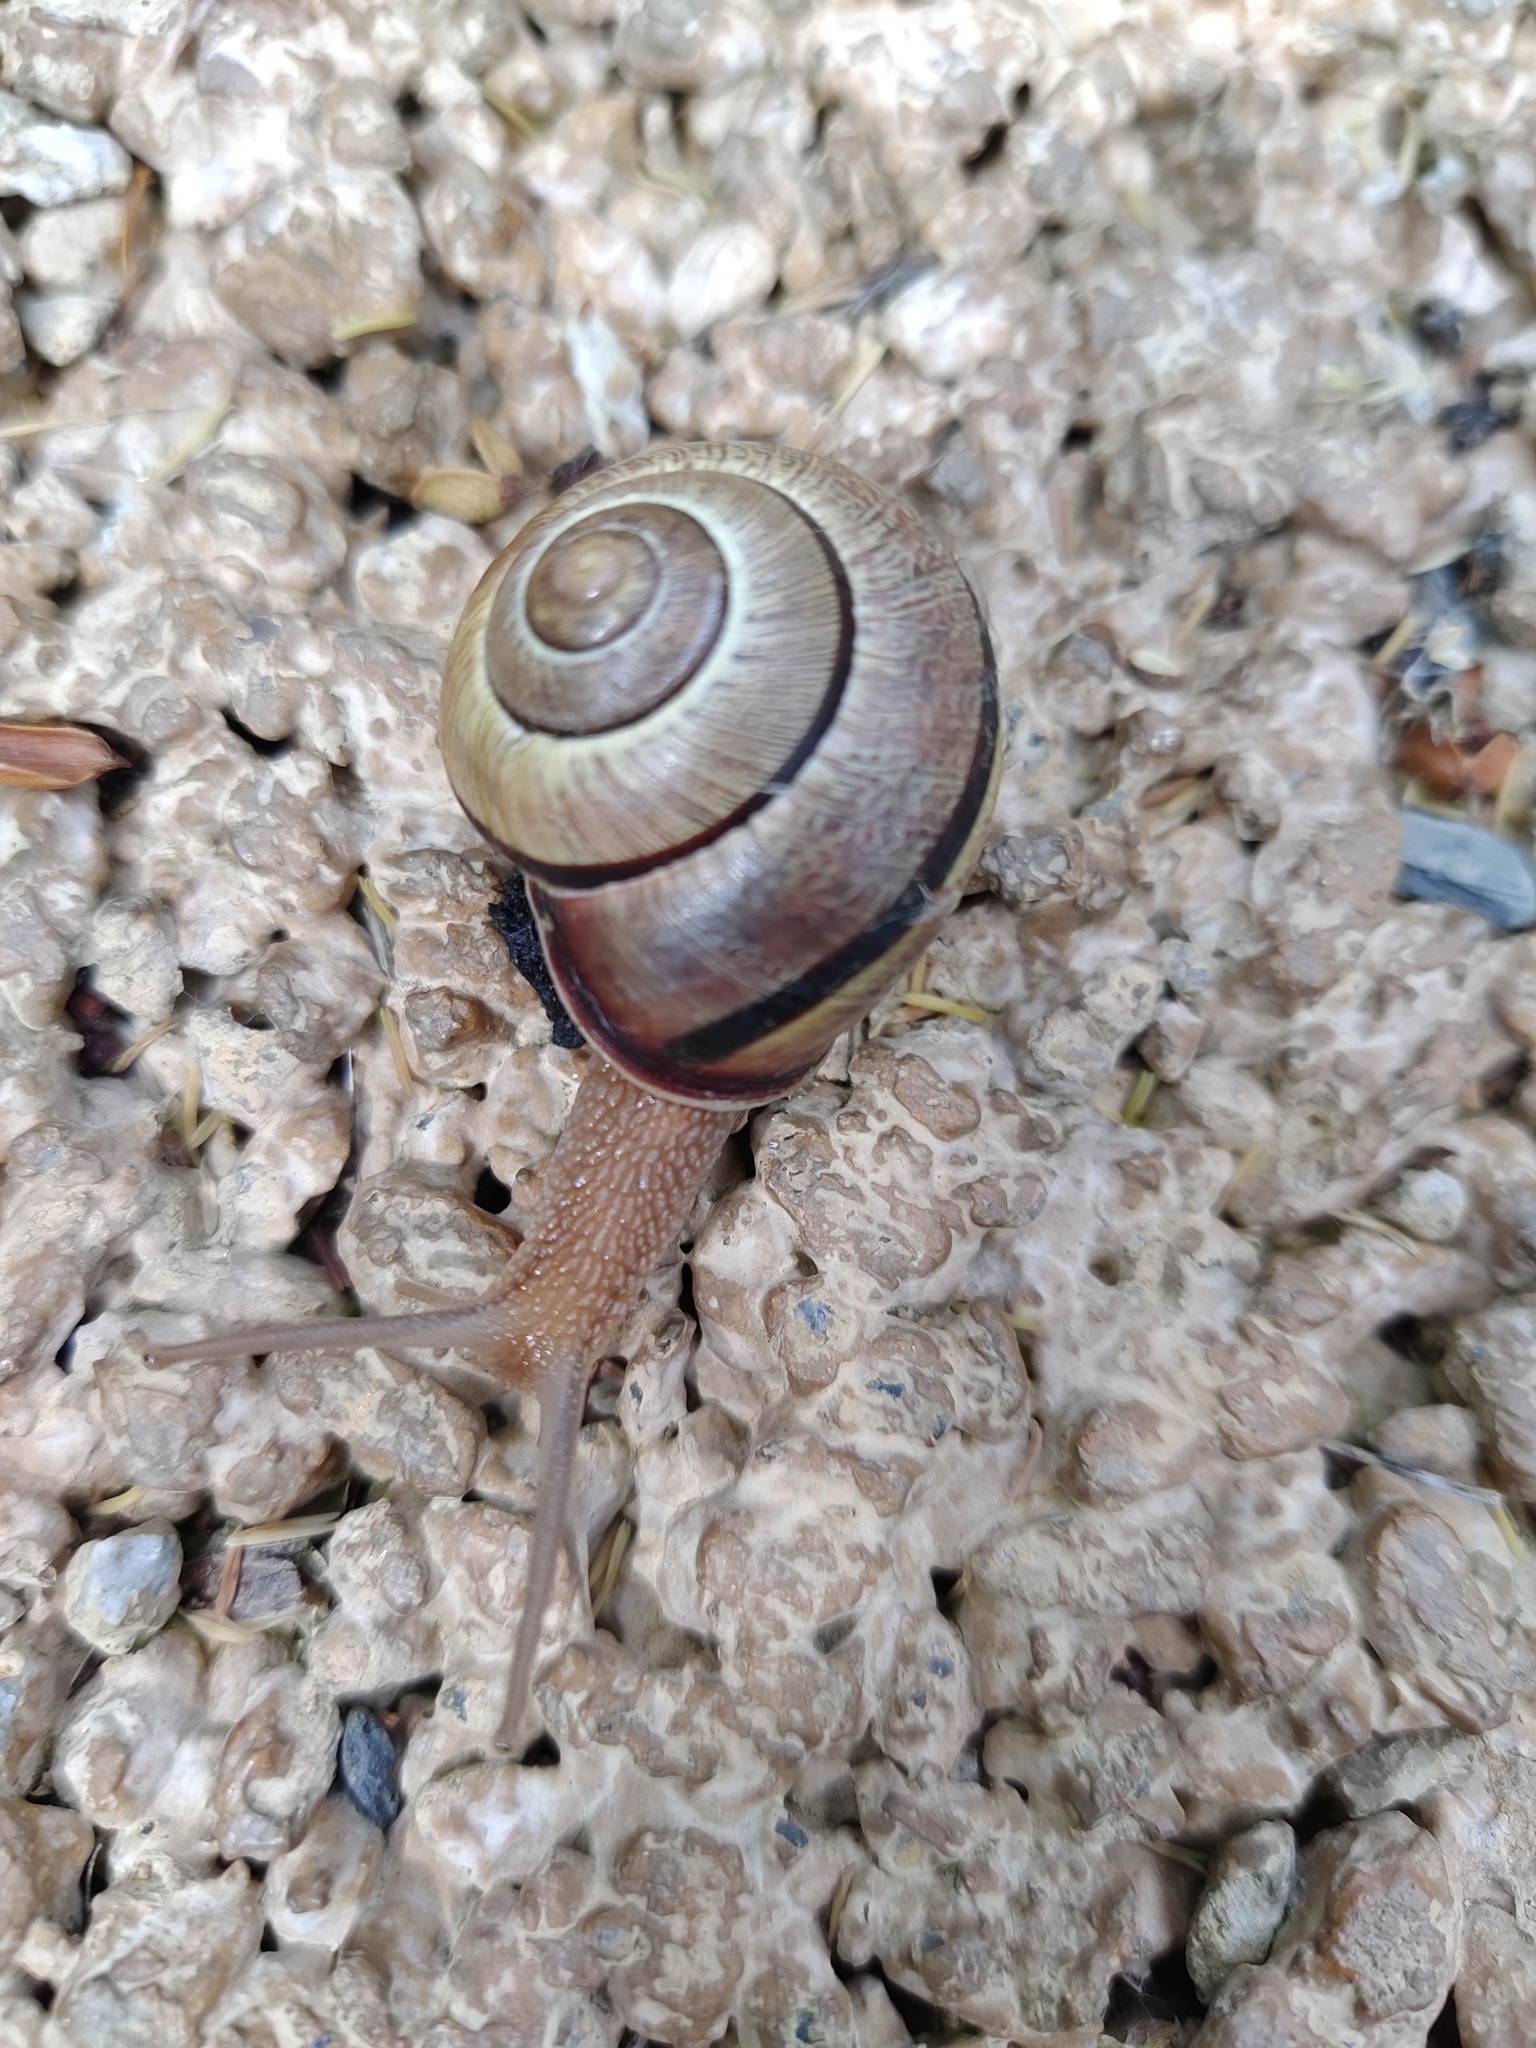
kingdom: Animalia
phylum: Mollusca
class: Gastropoda
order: Stylommatophora
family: Helicidae
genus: Cepaea
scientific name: Cepaea nemoralis
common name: Grovesnail
